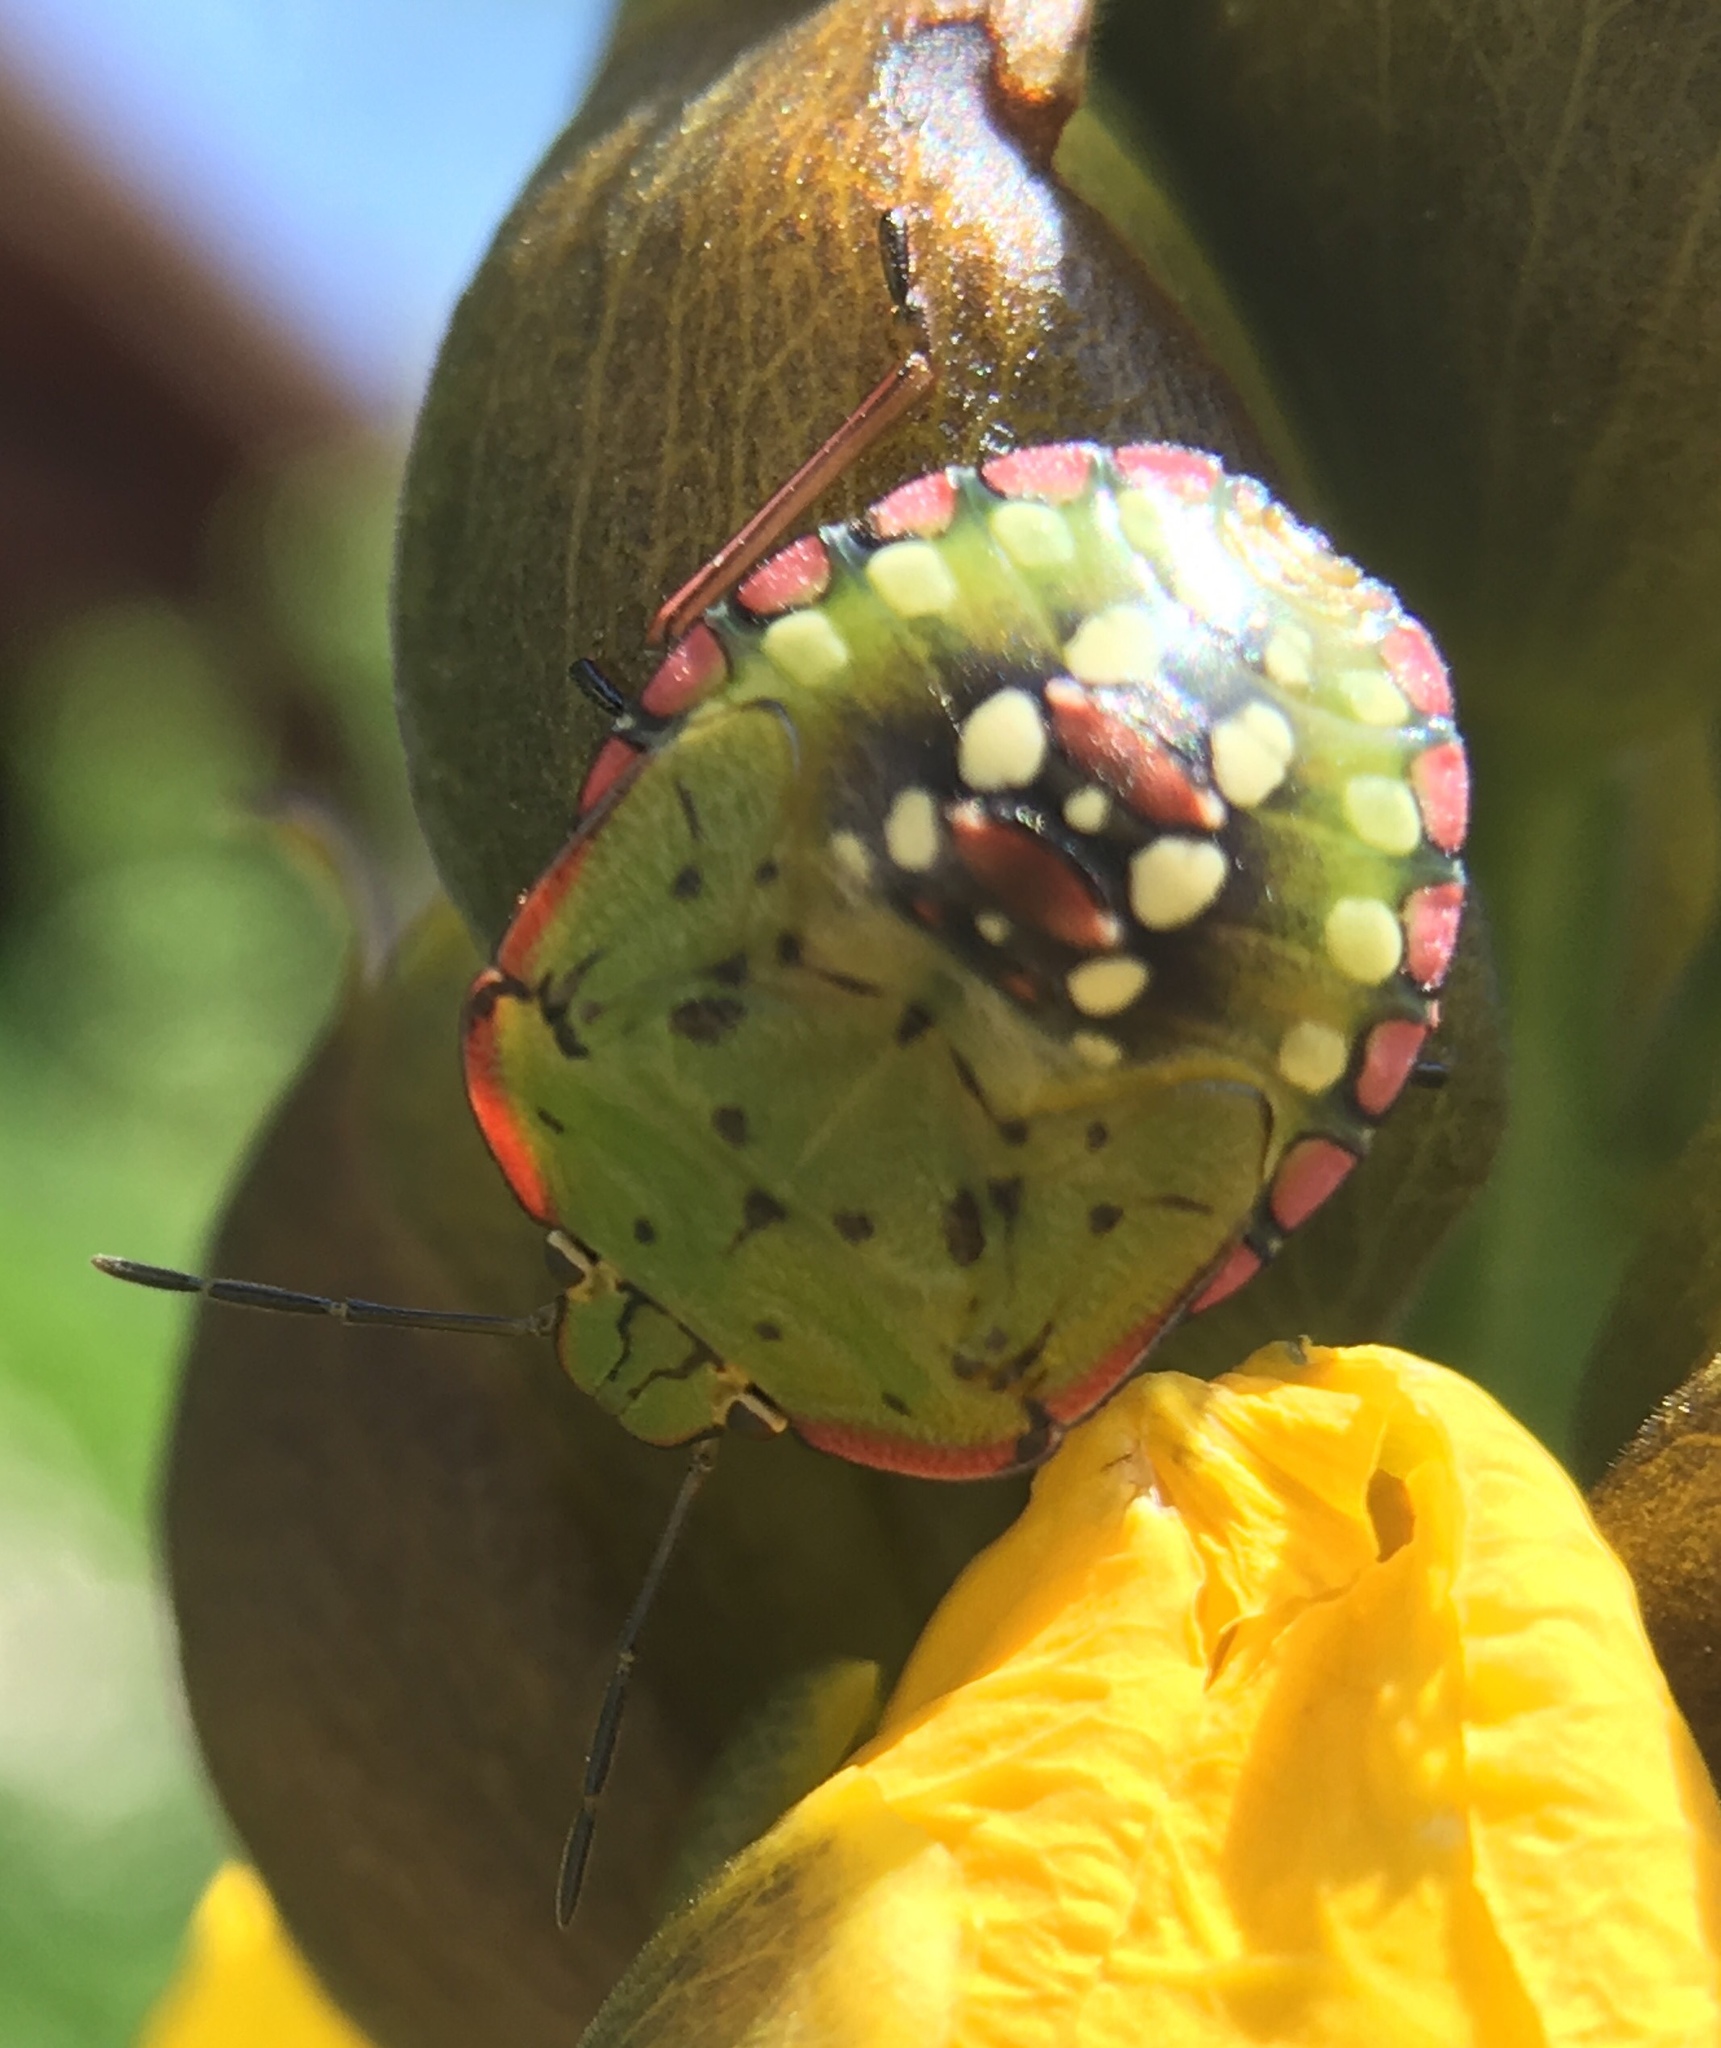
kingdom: Animalia
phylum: Arthropoda
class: Insecta
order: Hemiptera
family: Pentatomidae
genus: Nezara
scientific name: Nezara viridula
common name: Southern green stink bug
